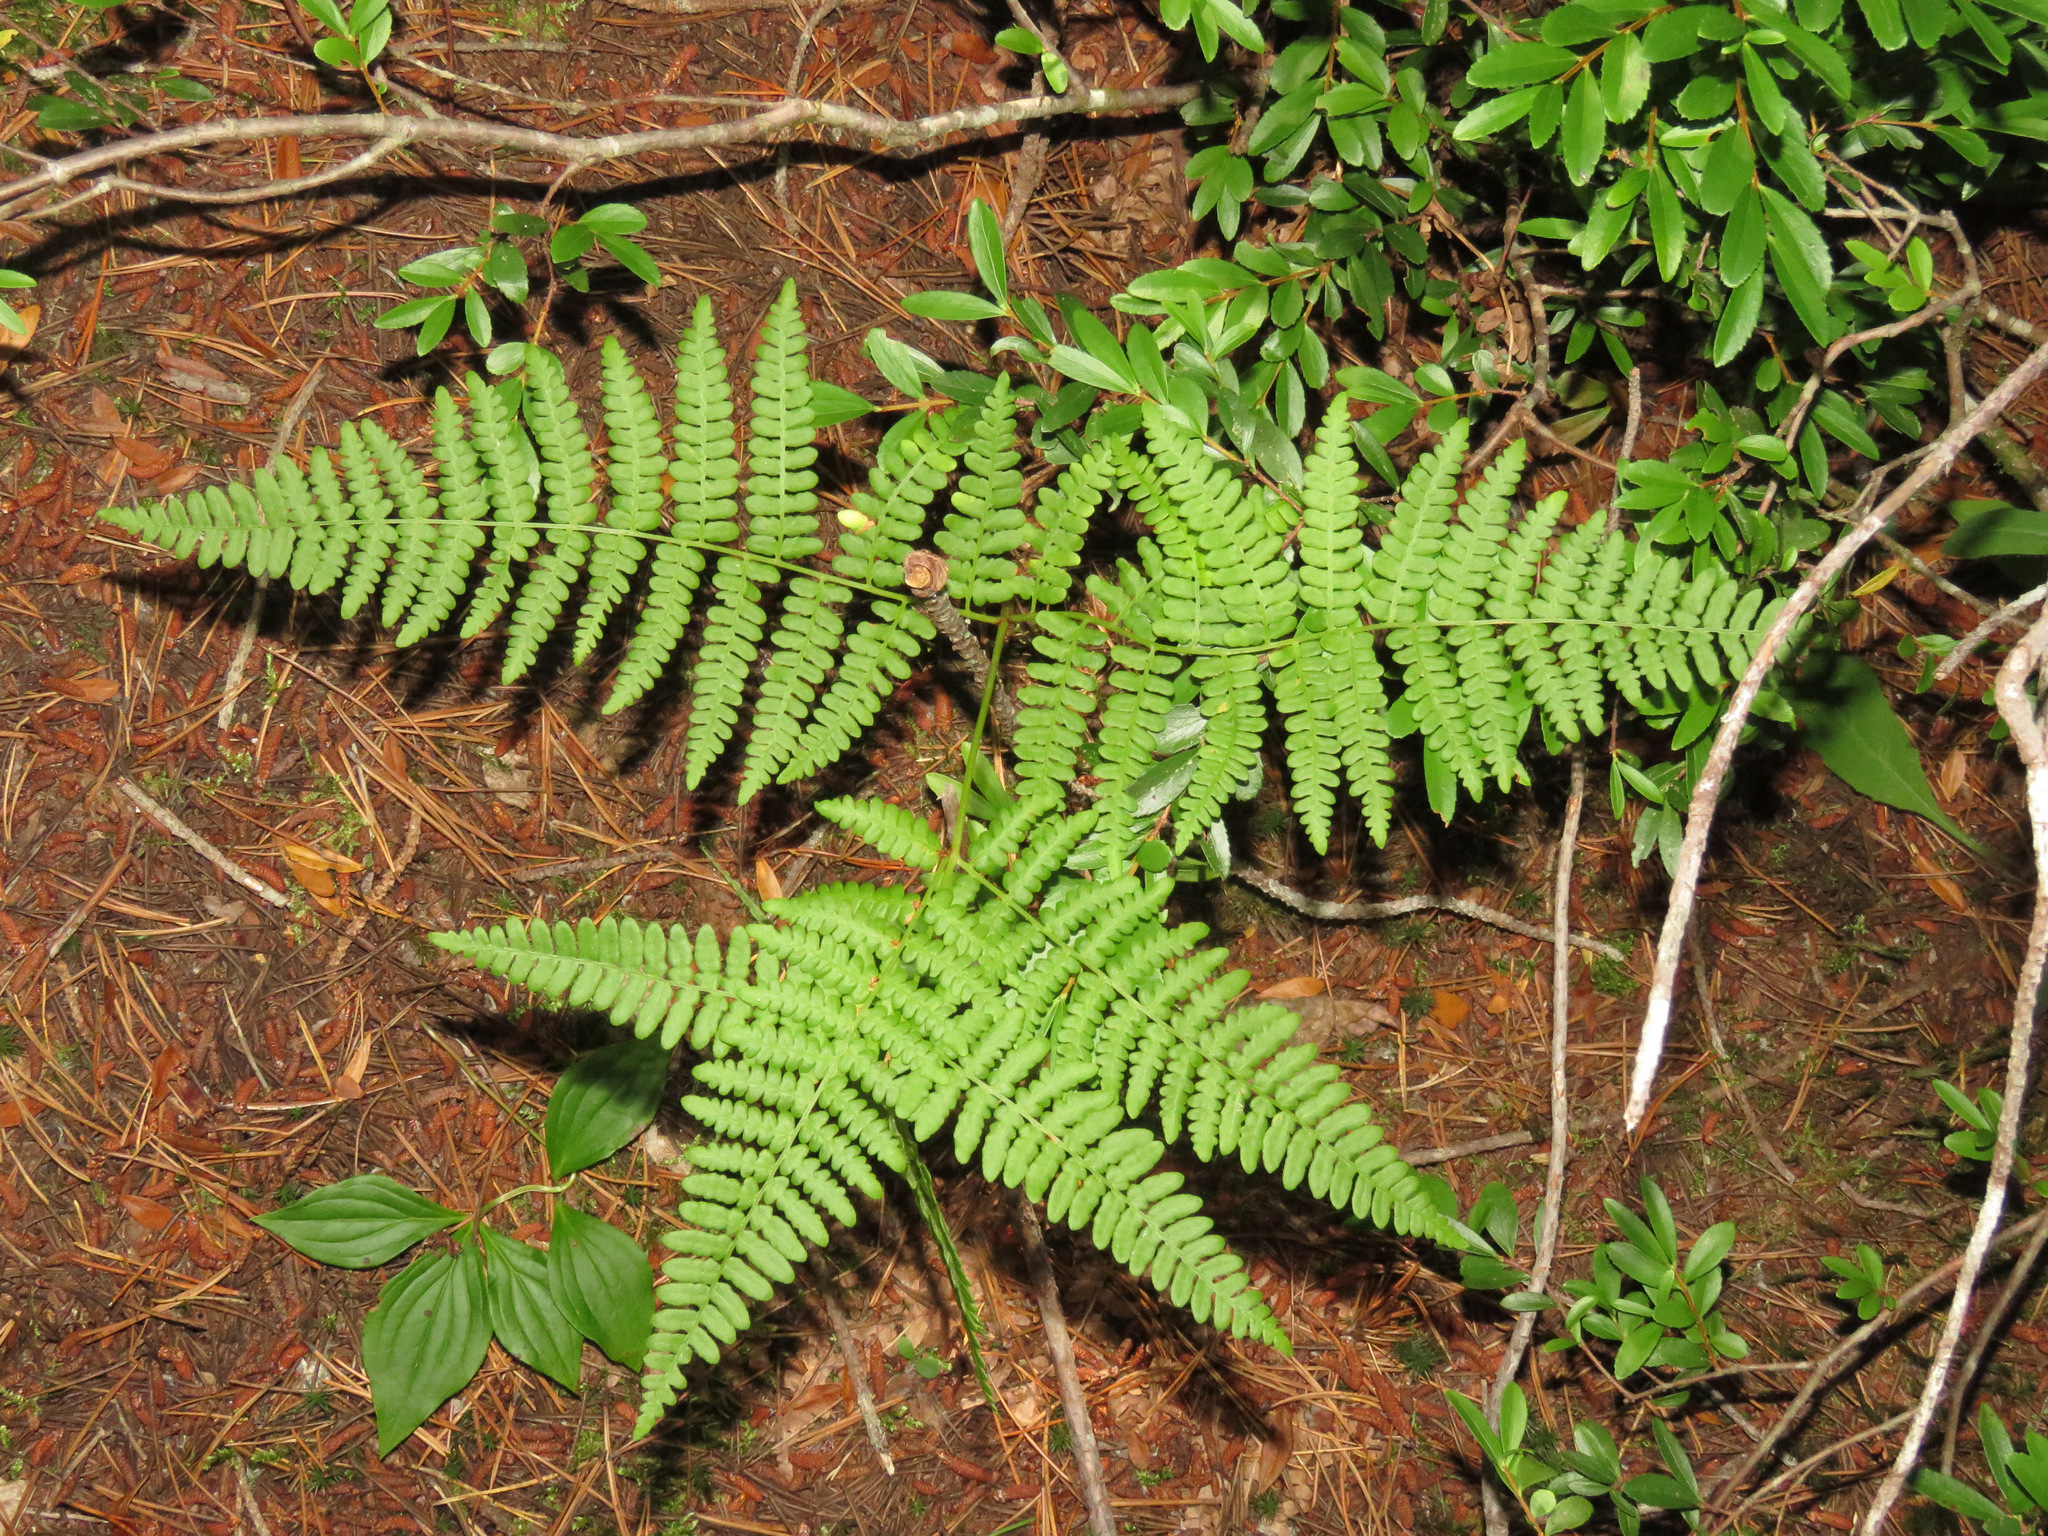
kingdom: Plantae
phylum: Tracheophyta
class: Polypodiopsida
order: Polypodiales
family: Dennstaedtiaceae
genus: Pteridium
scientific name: Pteridium aquilinum
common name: Bracken
